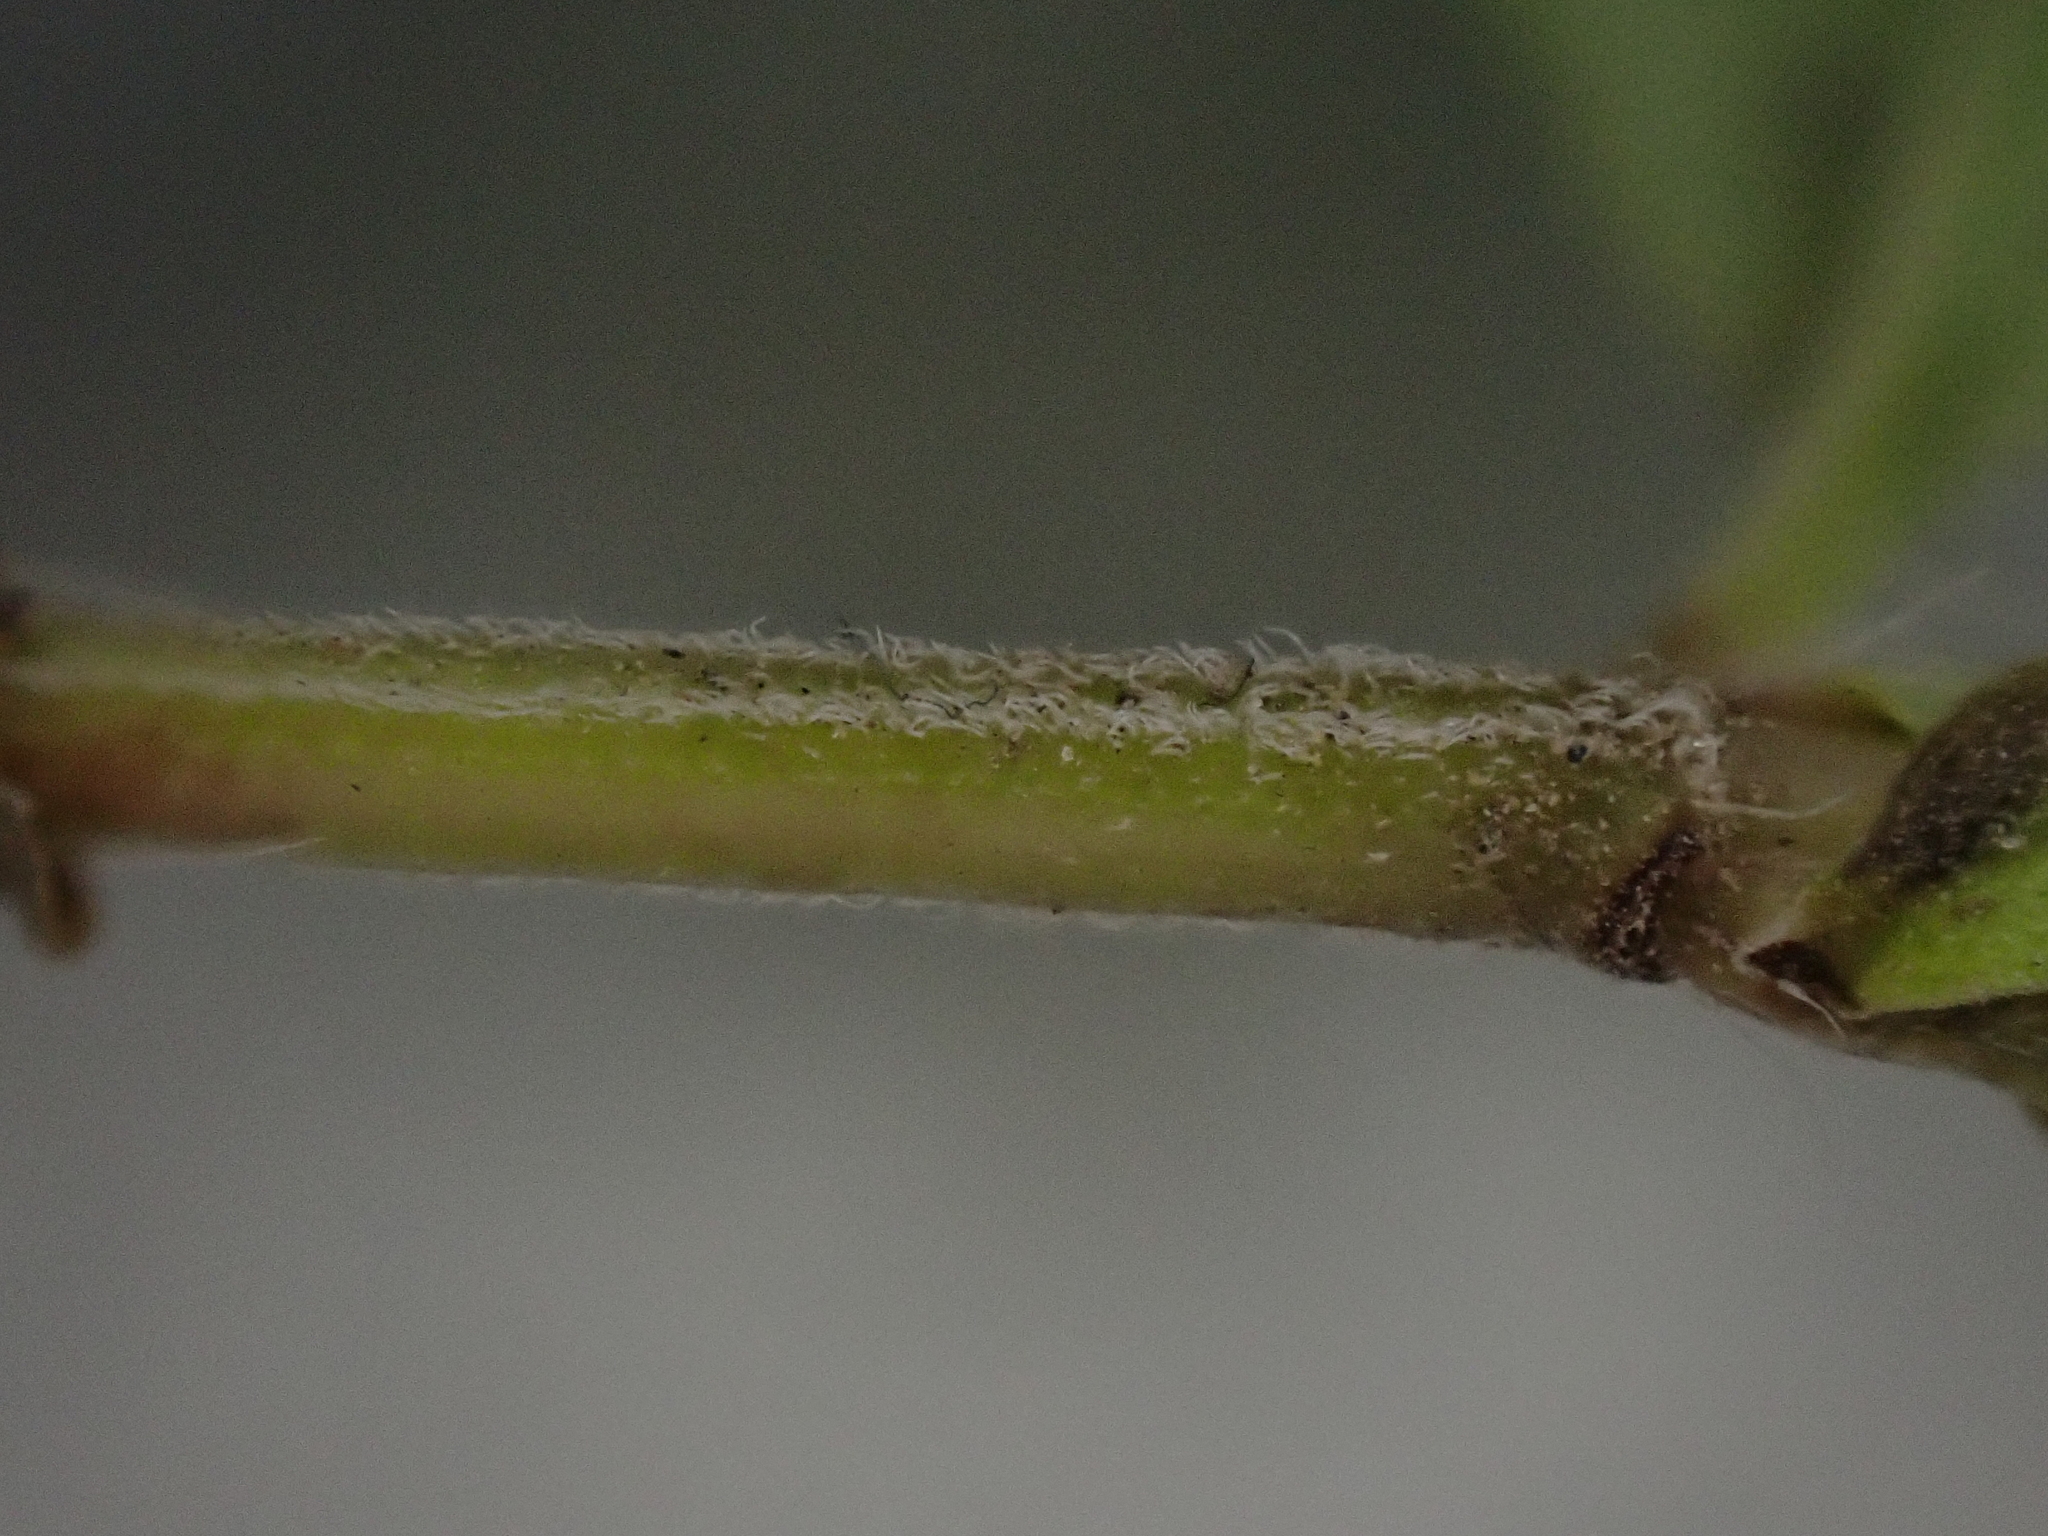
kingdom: Plantae
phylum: Tracheophyta
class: Magnoliopsida
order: Lamiales
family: Lamiaceae
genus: Thymus
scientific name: Thymus pulegioides
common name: Large thyme
